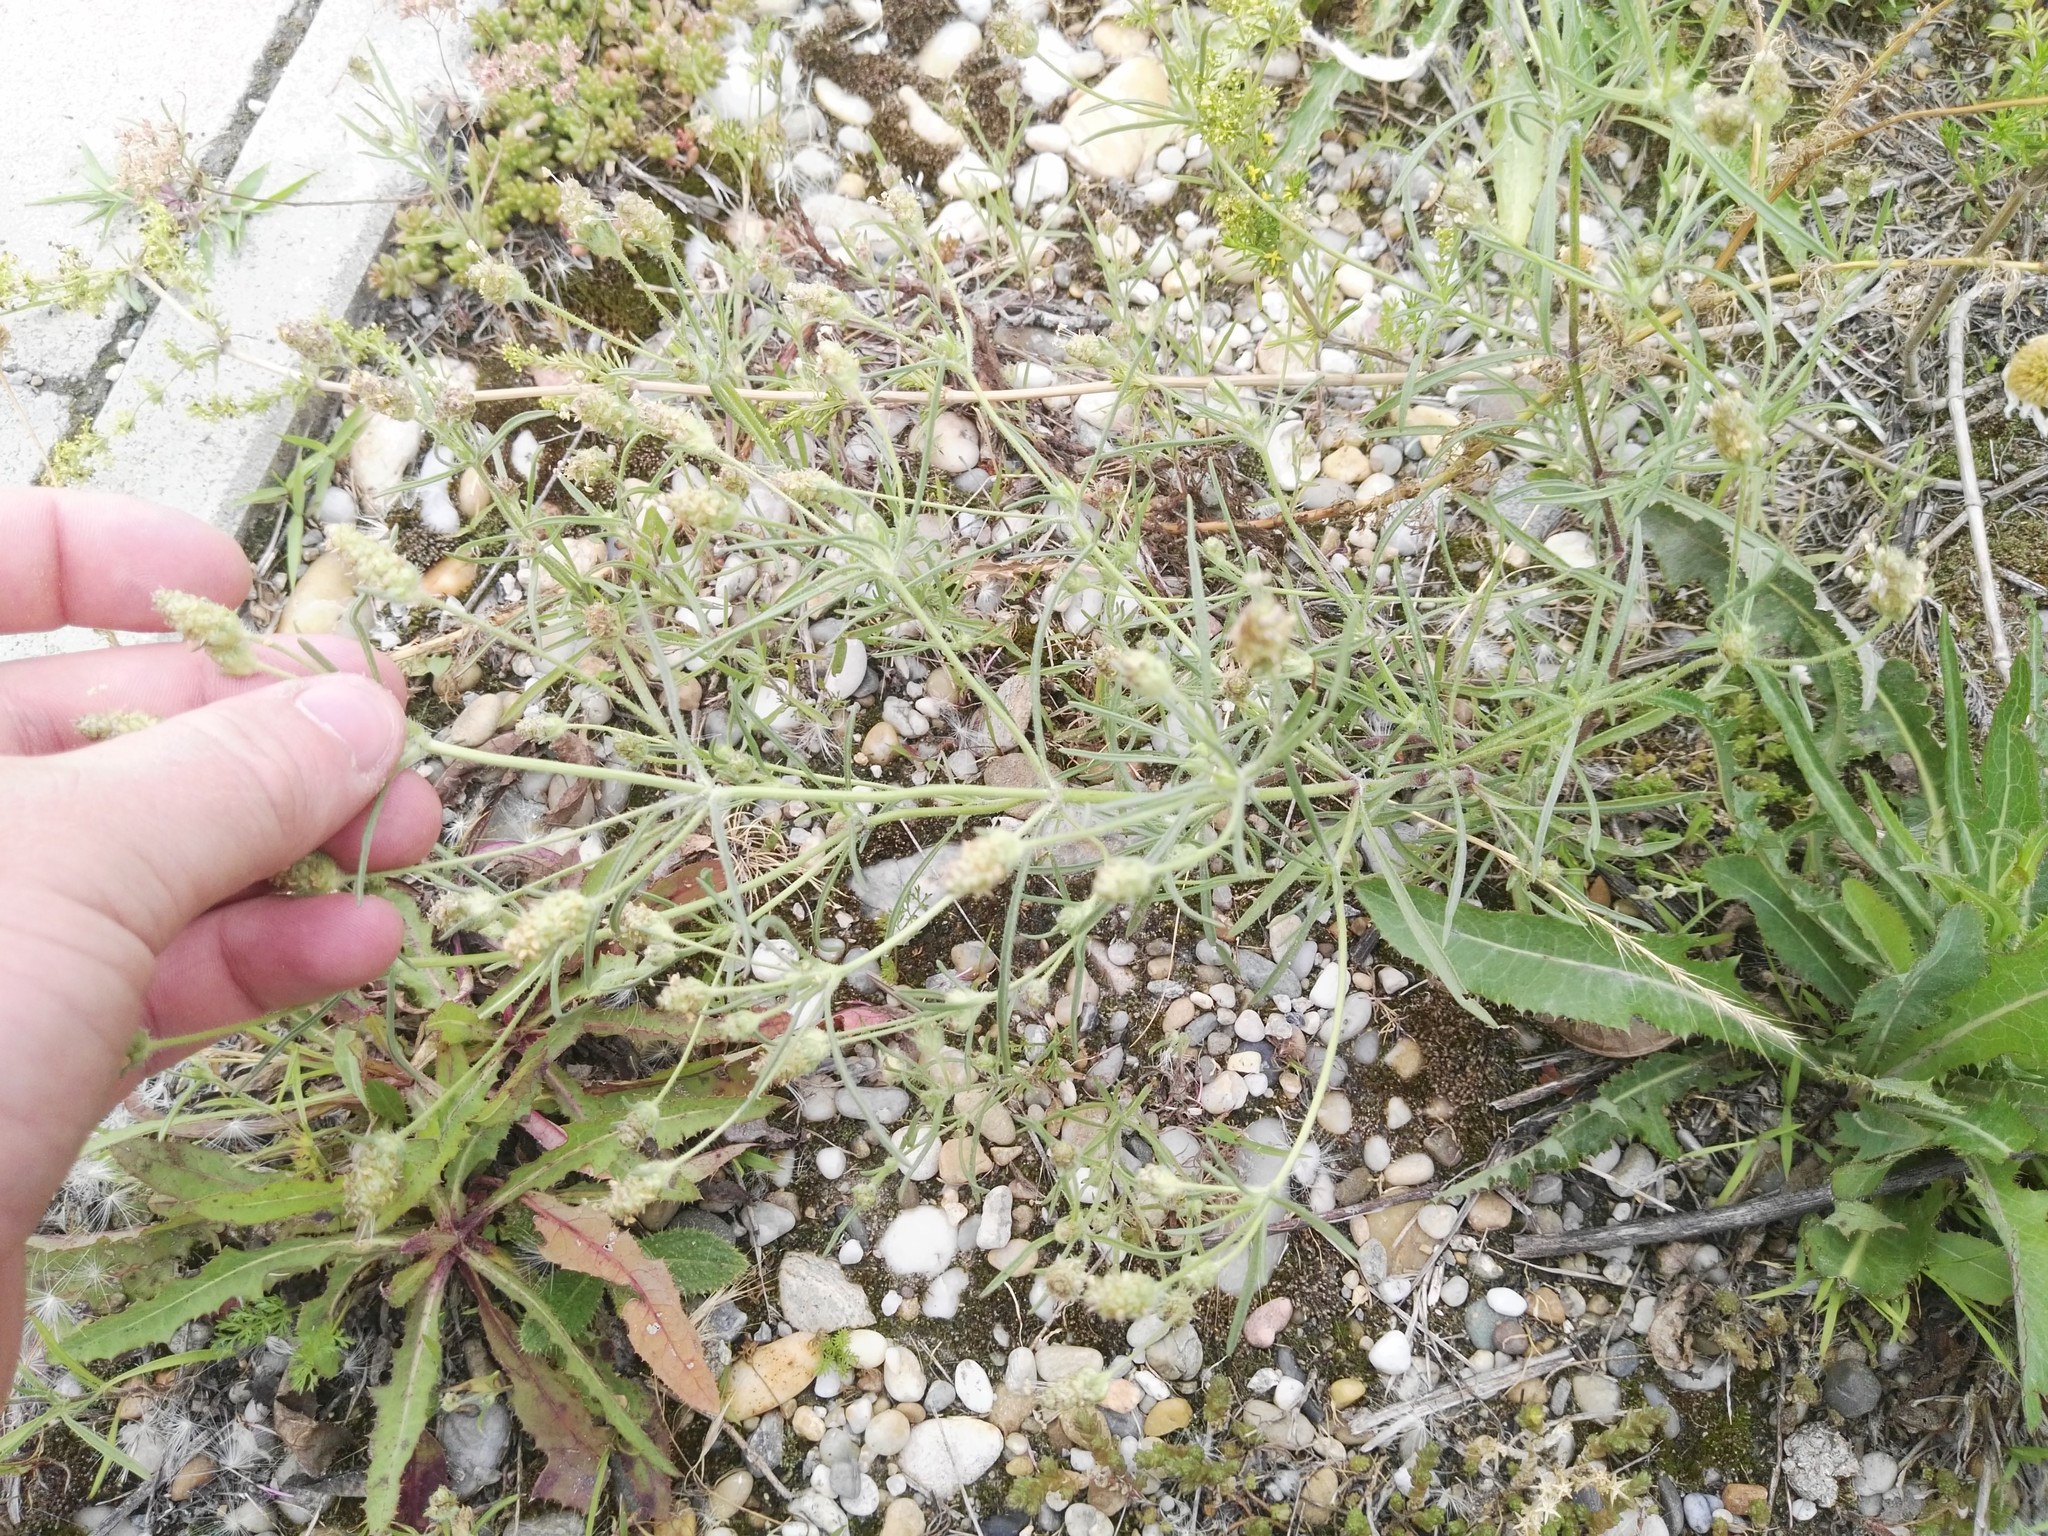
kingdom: Plantae
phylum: Tracheophyta
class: Magnoliopsida
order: Lamiales
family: Plantaginaceae
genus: Plantago
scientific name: Plantago arenaria
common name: Branched plantain
